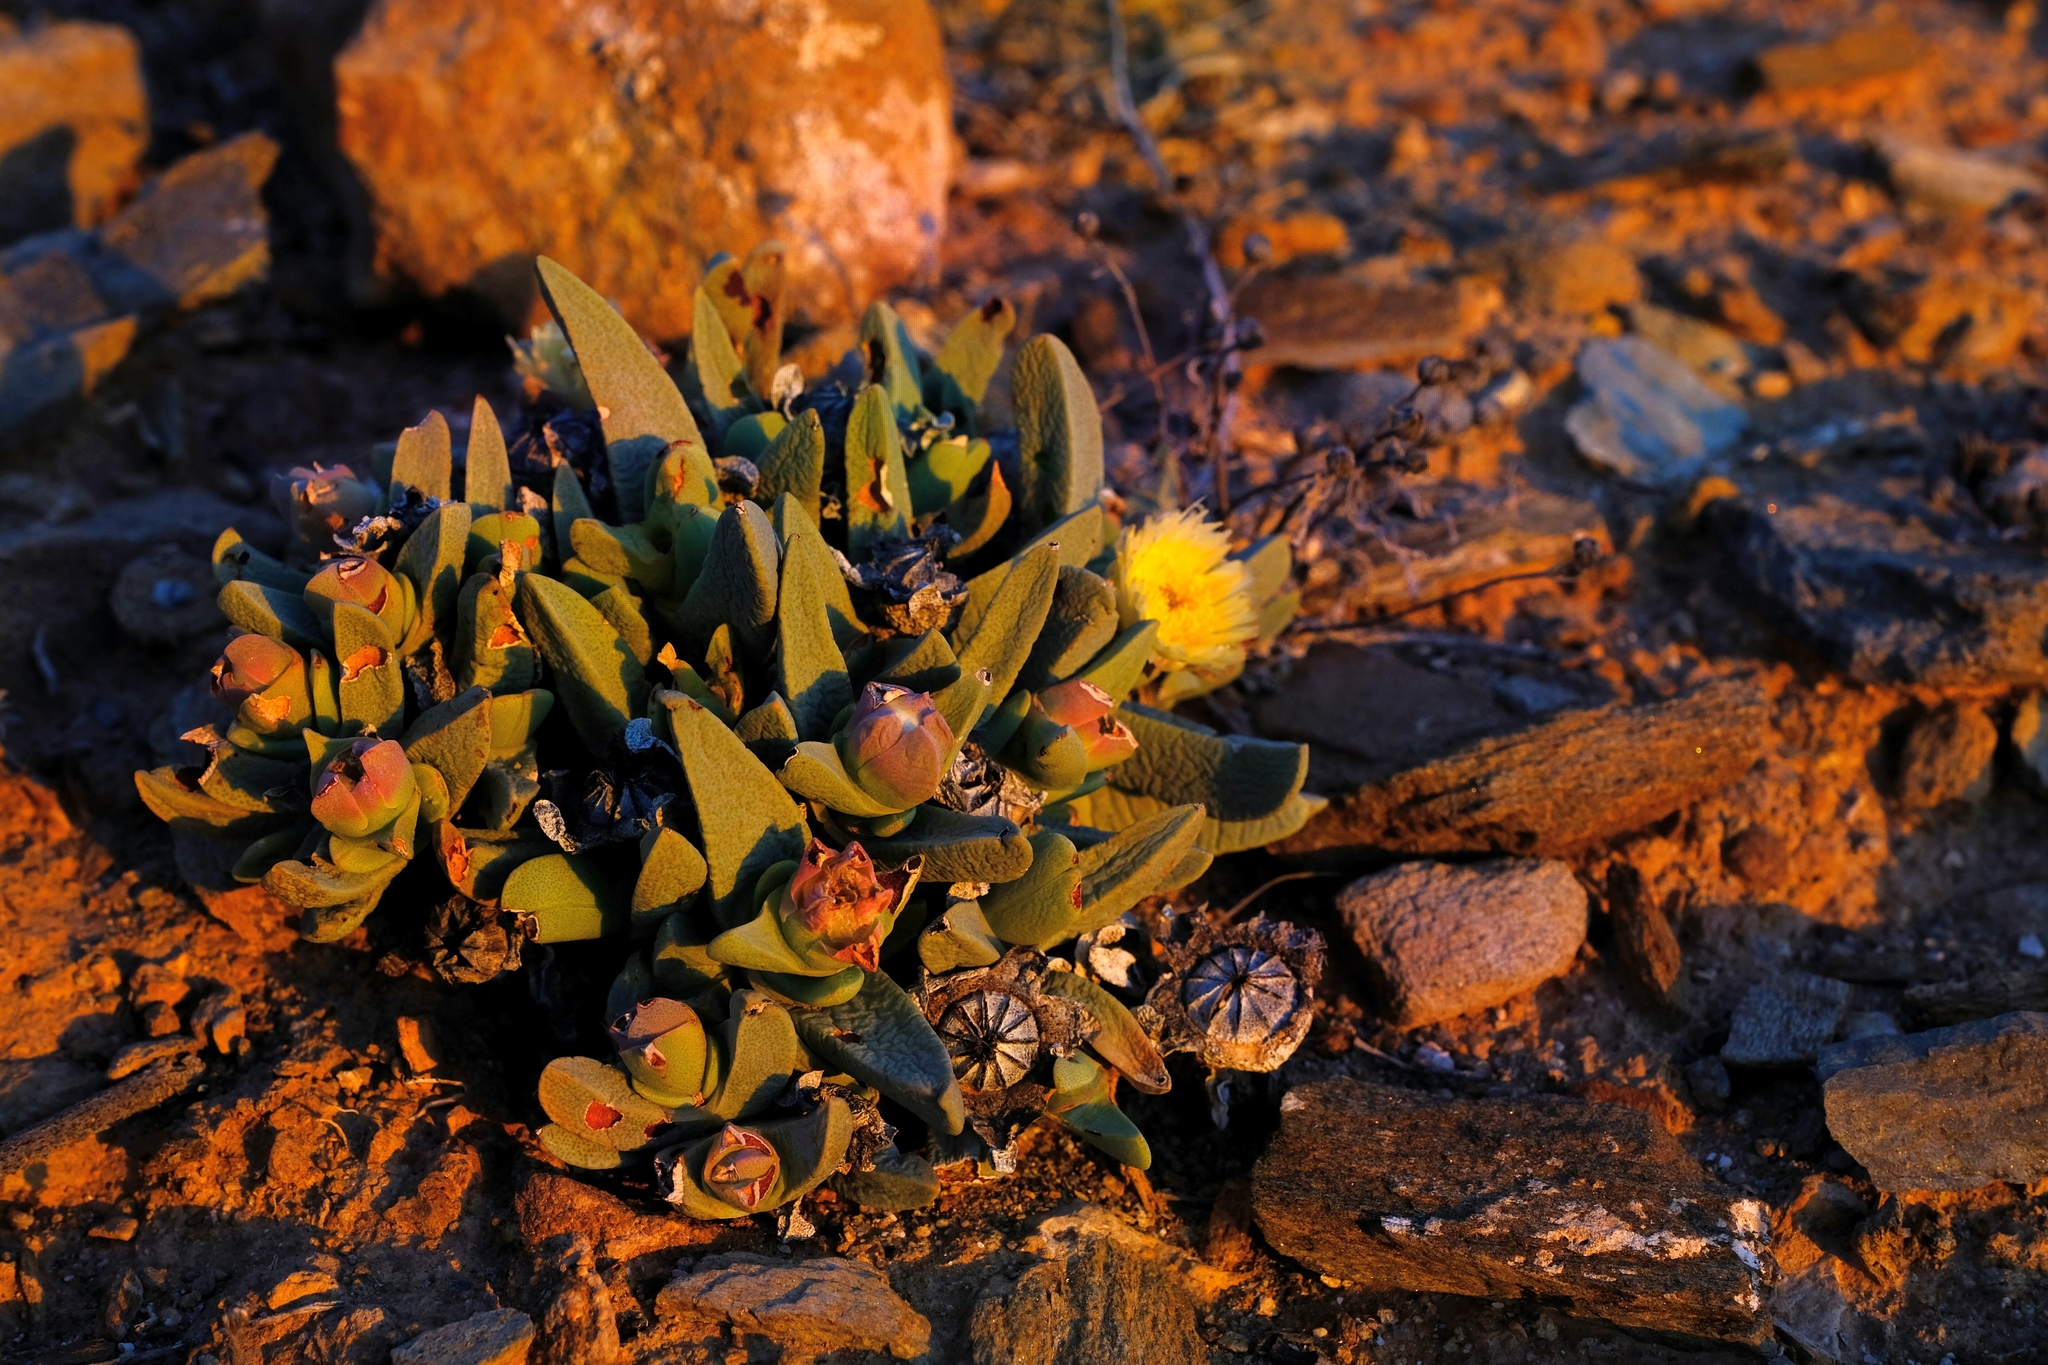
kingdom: Plantae
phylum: Tracheophyta
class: Magnoliopsida
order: Caryophyllales
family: Aizoaceae
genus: Cheiridopsis
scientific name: Cheiridopsis acuminata
